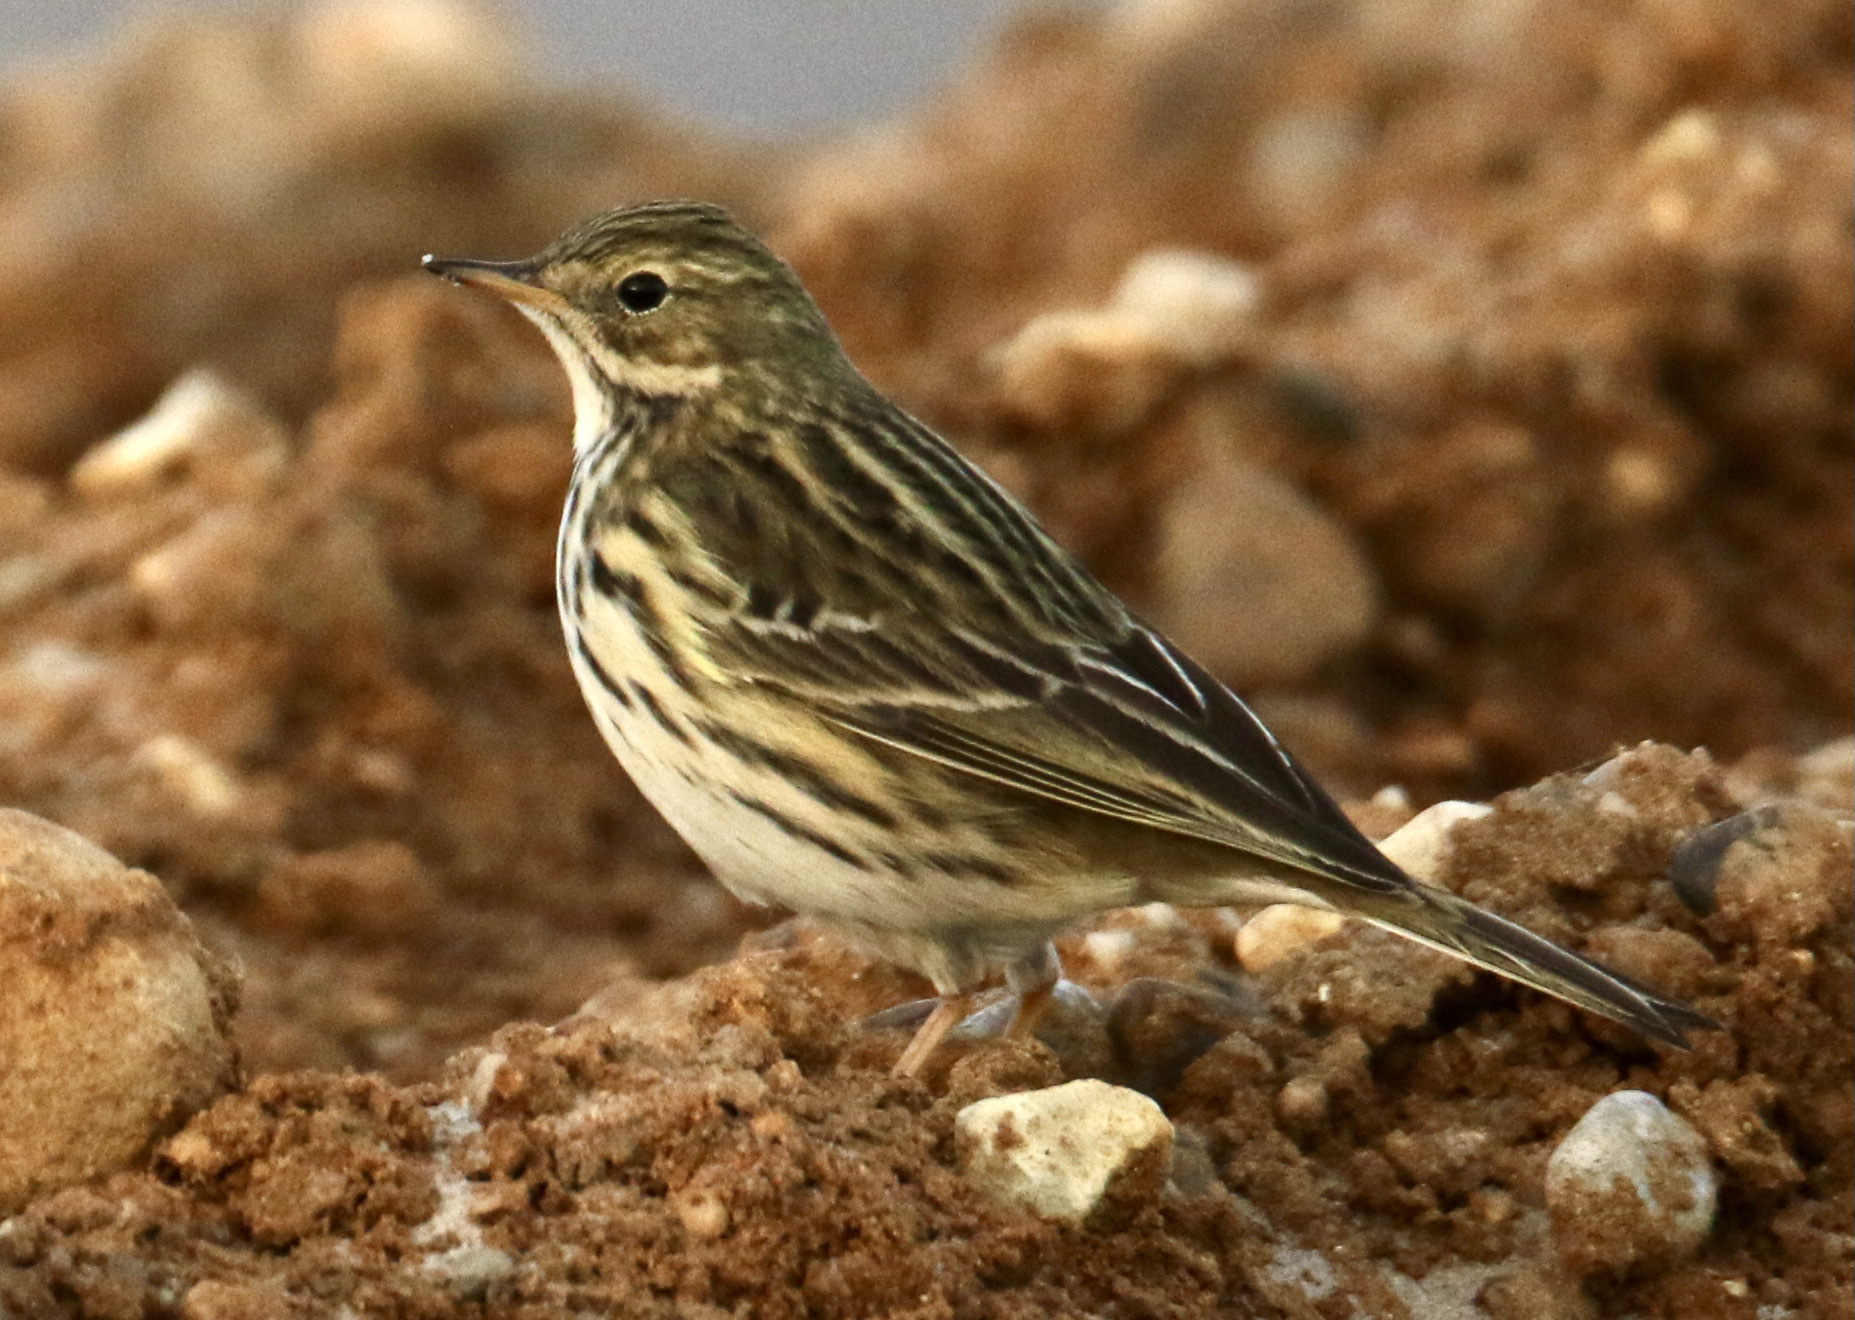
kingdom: Animalia
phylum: Chordata
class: Aves
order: Passeriformes
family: Motacillidae
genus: Anthus
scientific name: Anthus pratensis
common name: Meadow pipit
